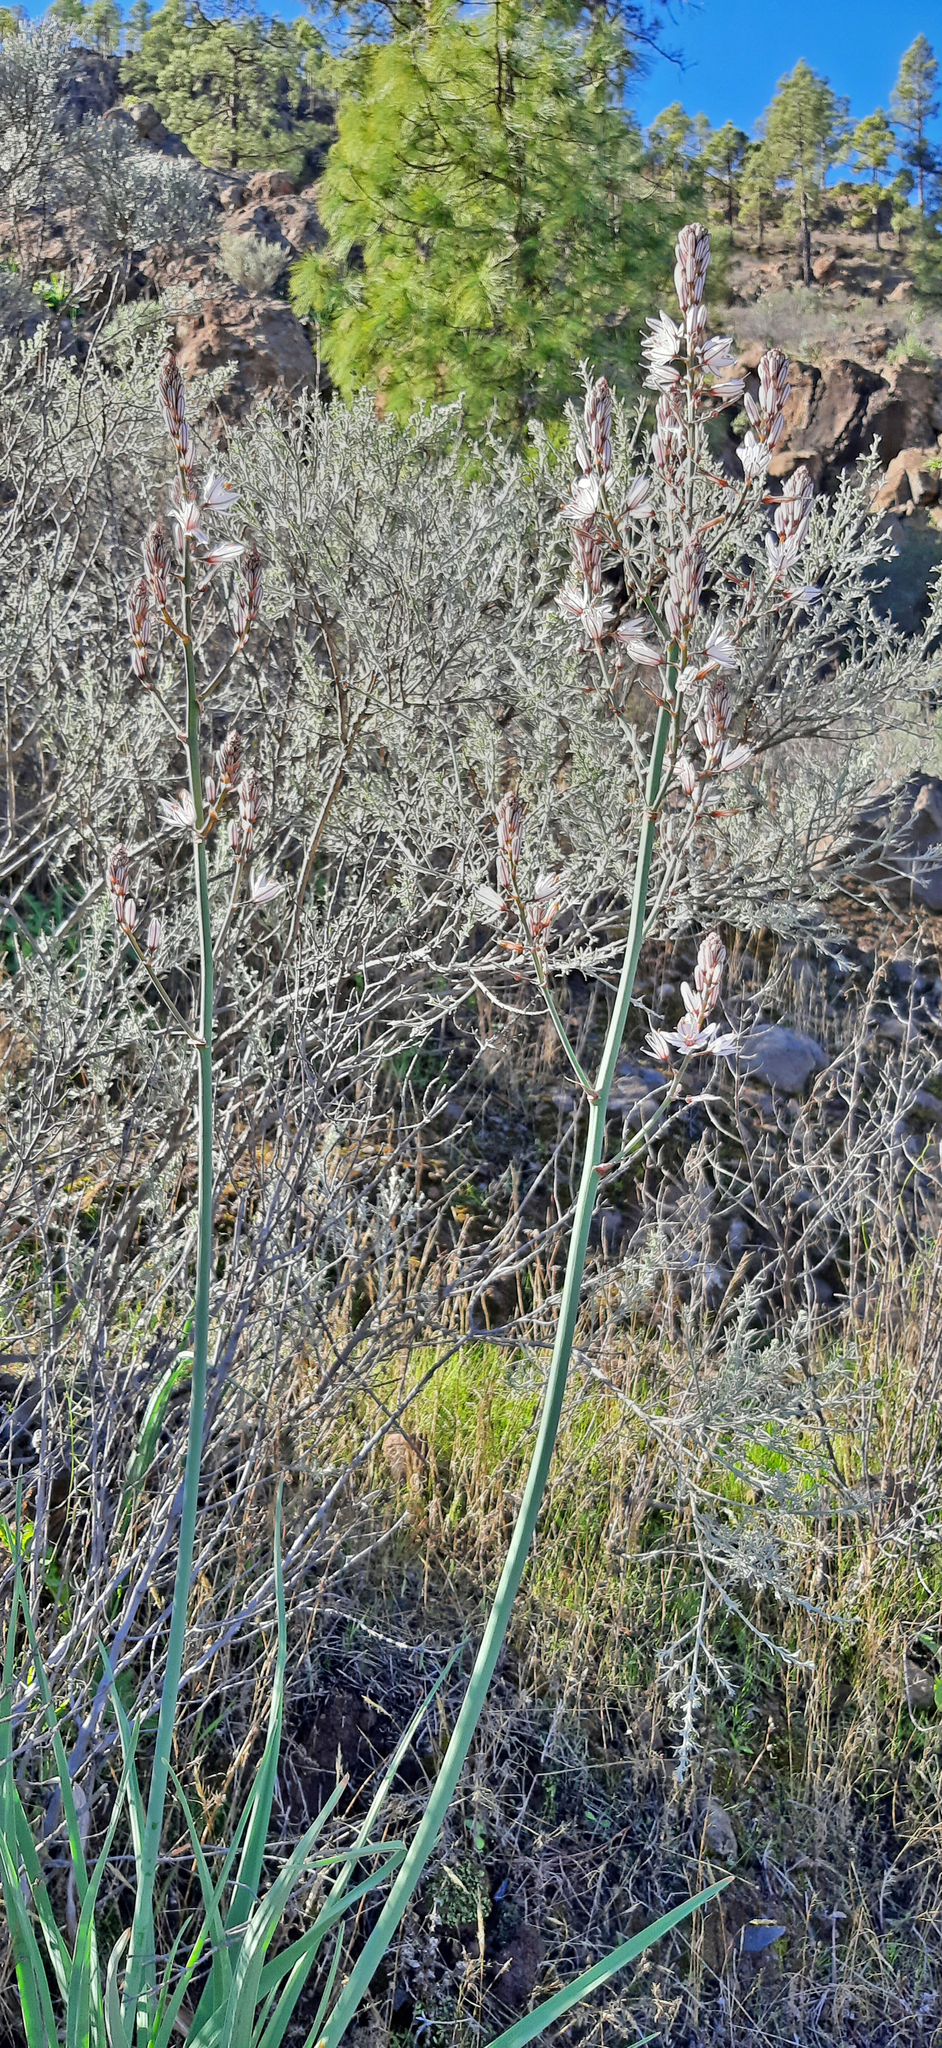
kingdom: Plantae
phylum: Tracheophyta
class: Liliopsida
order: Asparagales
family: Asphodelaceae
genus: Asphodelus
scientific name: Asphodelus ramosus
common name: Silverrod
